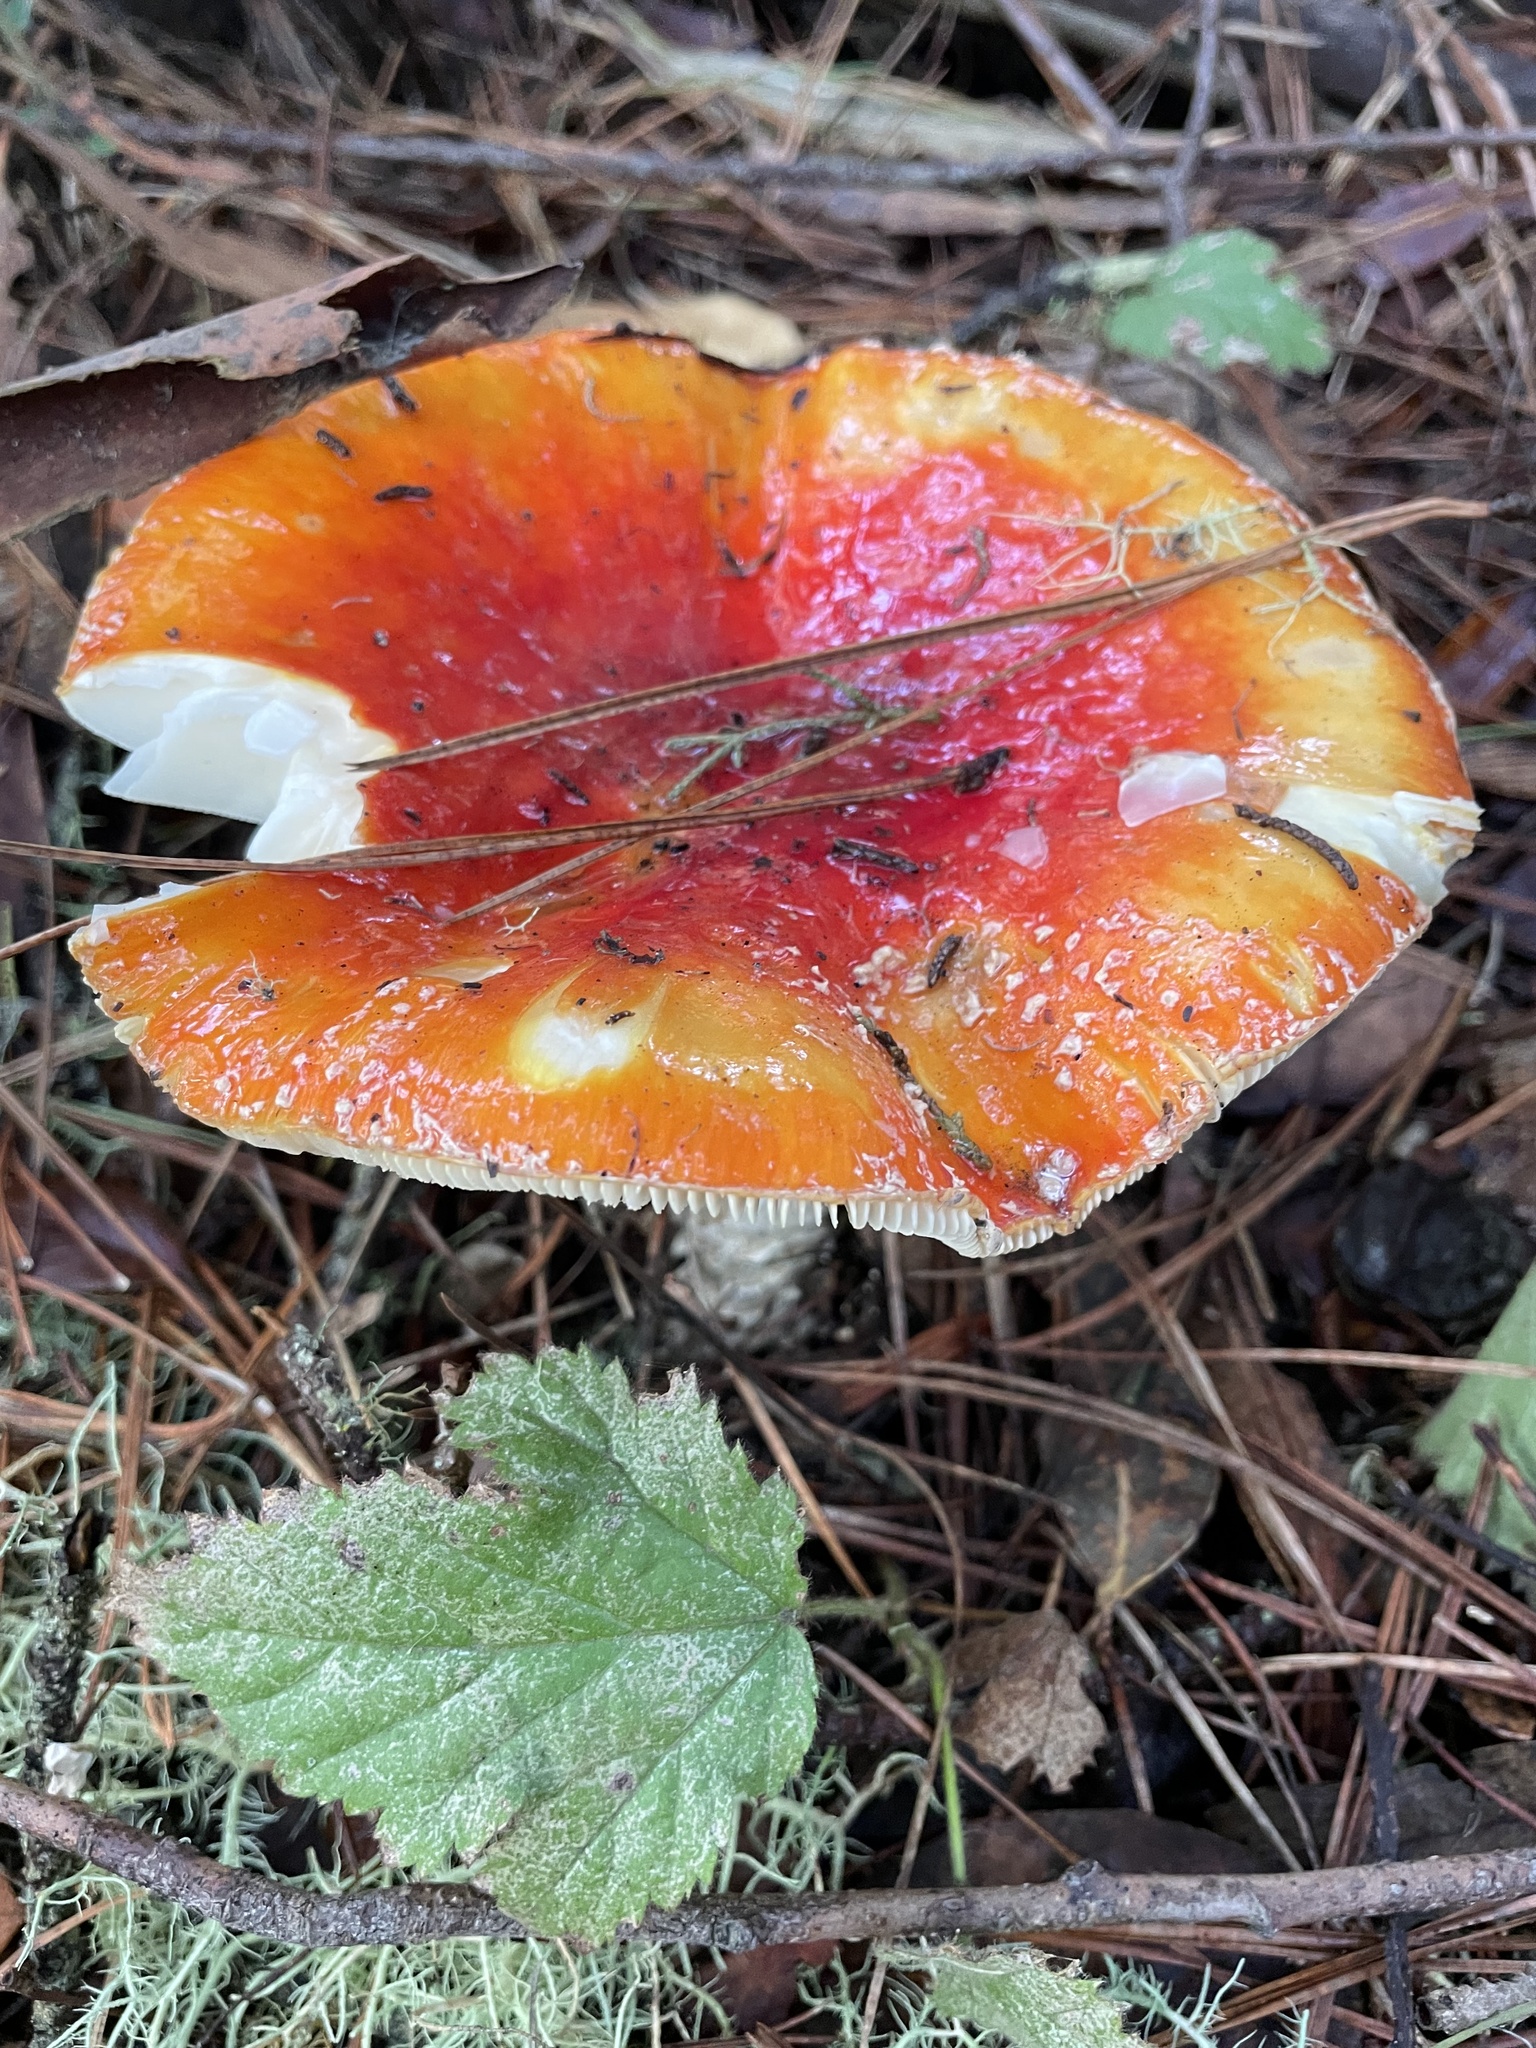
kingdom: Fungi
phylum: Basidiomycota
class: Agaricomycetes
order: Agaricales
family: Amanitaceae
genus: Amanita
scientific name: Amanita muscaria
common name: Fly agaric
